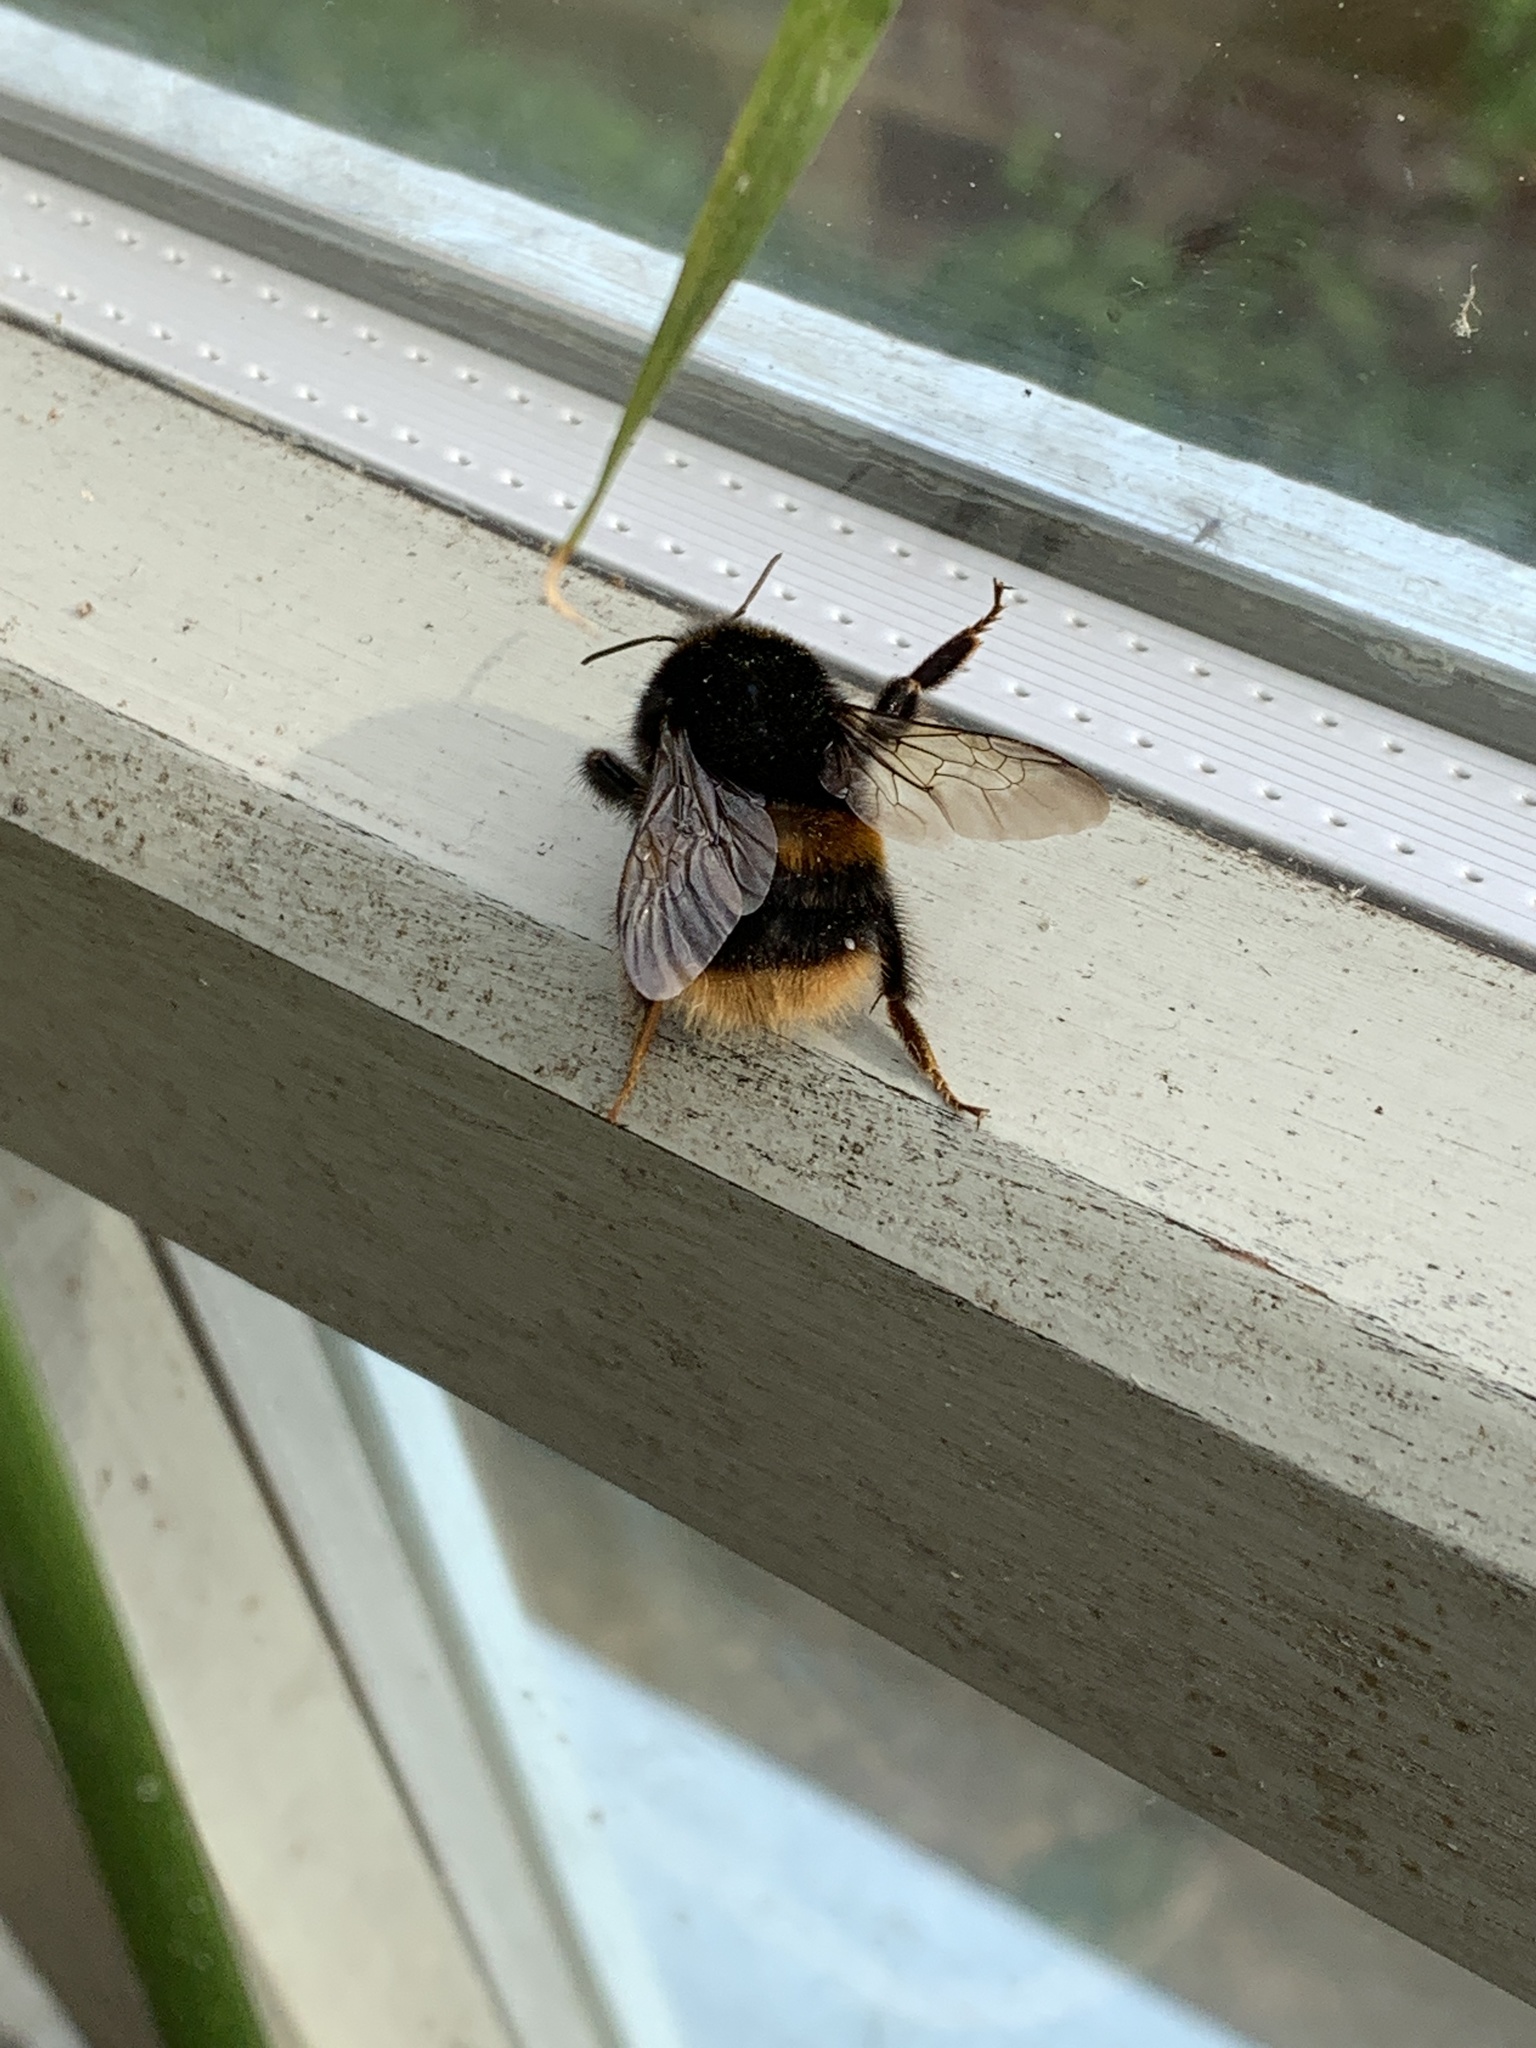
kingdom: Animalia
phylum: Arthropoda
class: Insecta
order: Hymenoptera
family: Apidae
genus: Bombus
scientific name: Bombus terrestris
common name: Buff-tailed bumblebee
